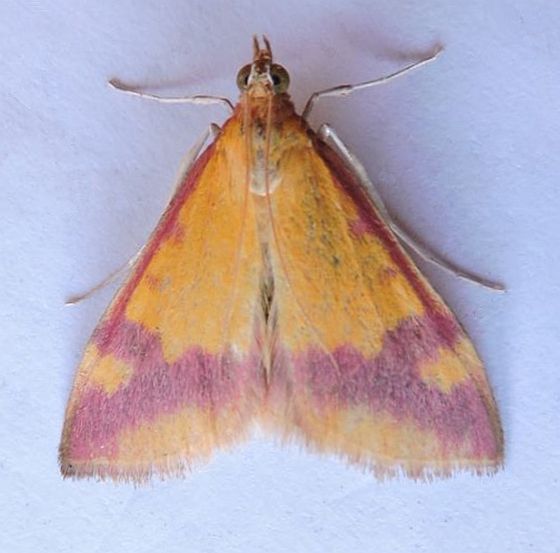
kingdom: Animalia
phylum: Arthropoda
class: Insecta
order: Lepidoptera
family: Crambidae
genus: Pyrausta
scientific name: Pyrausta scurralis
